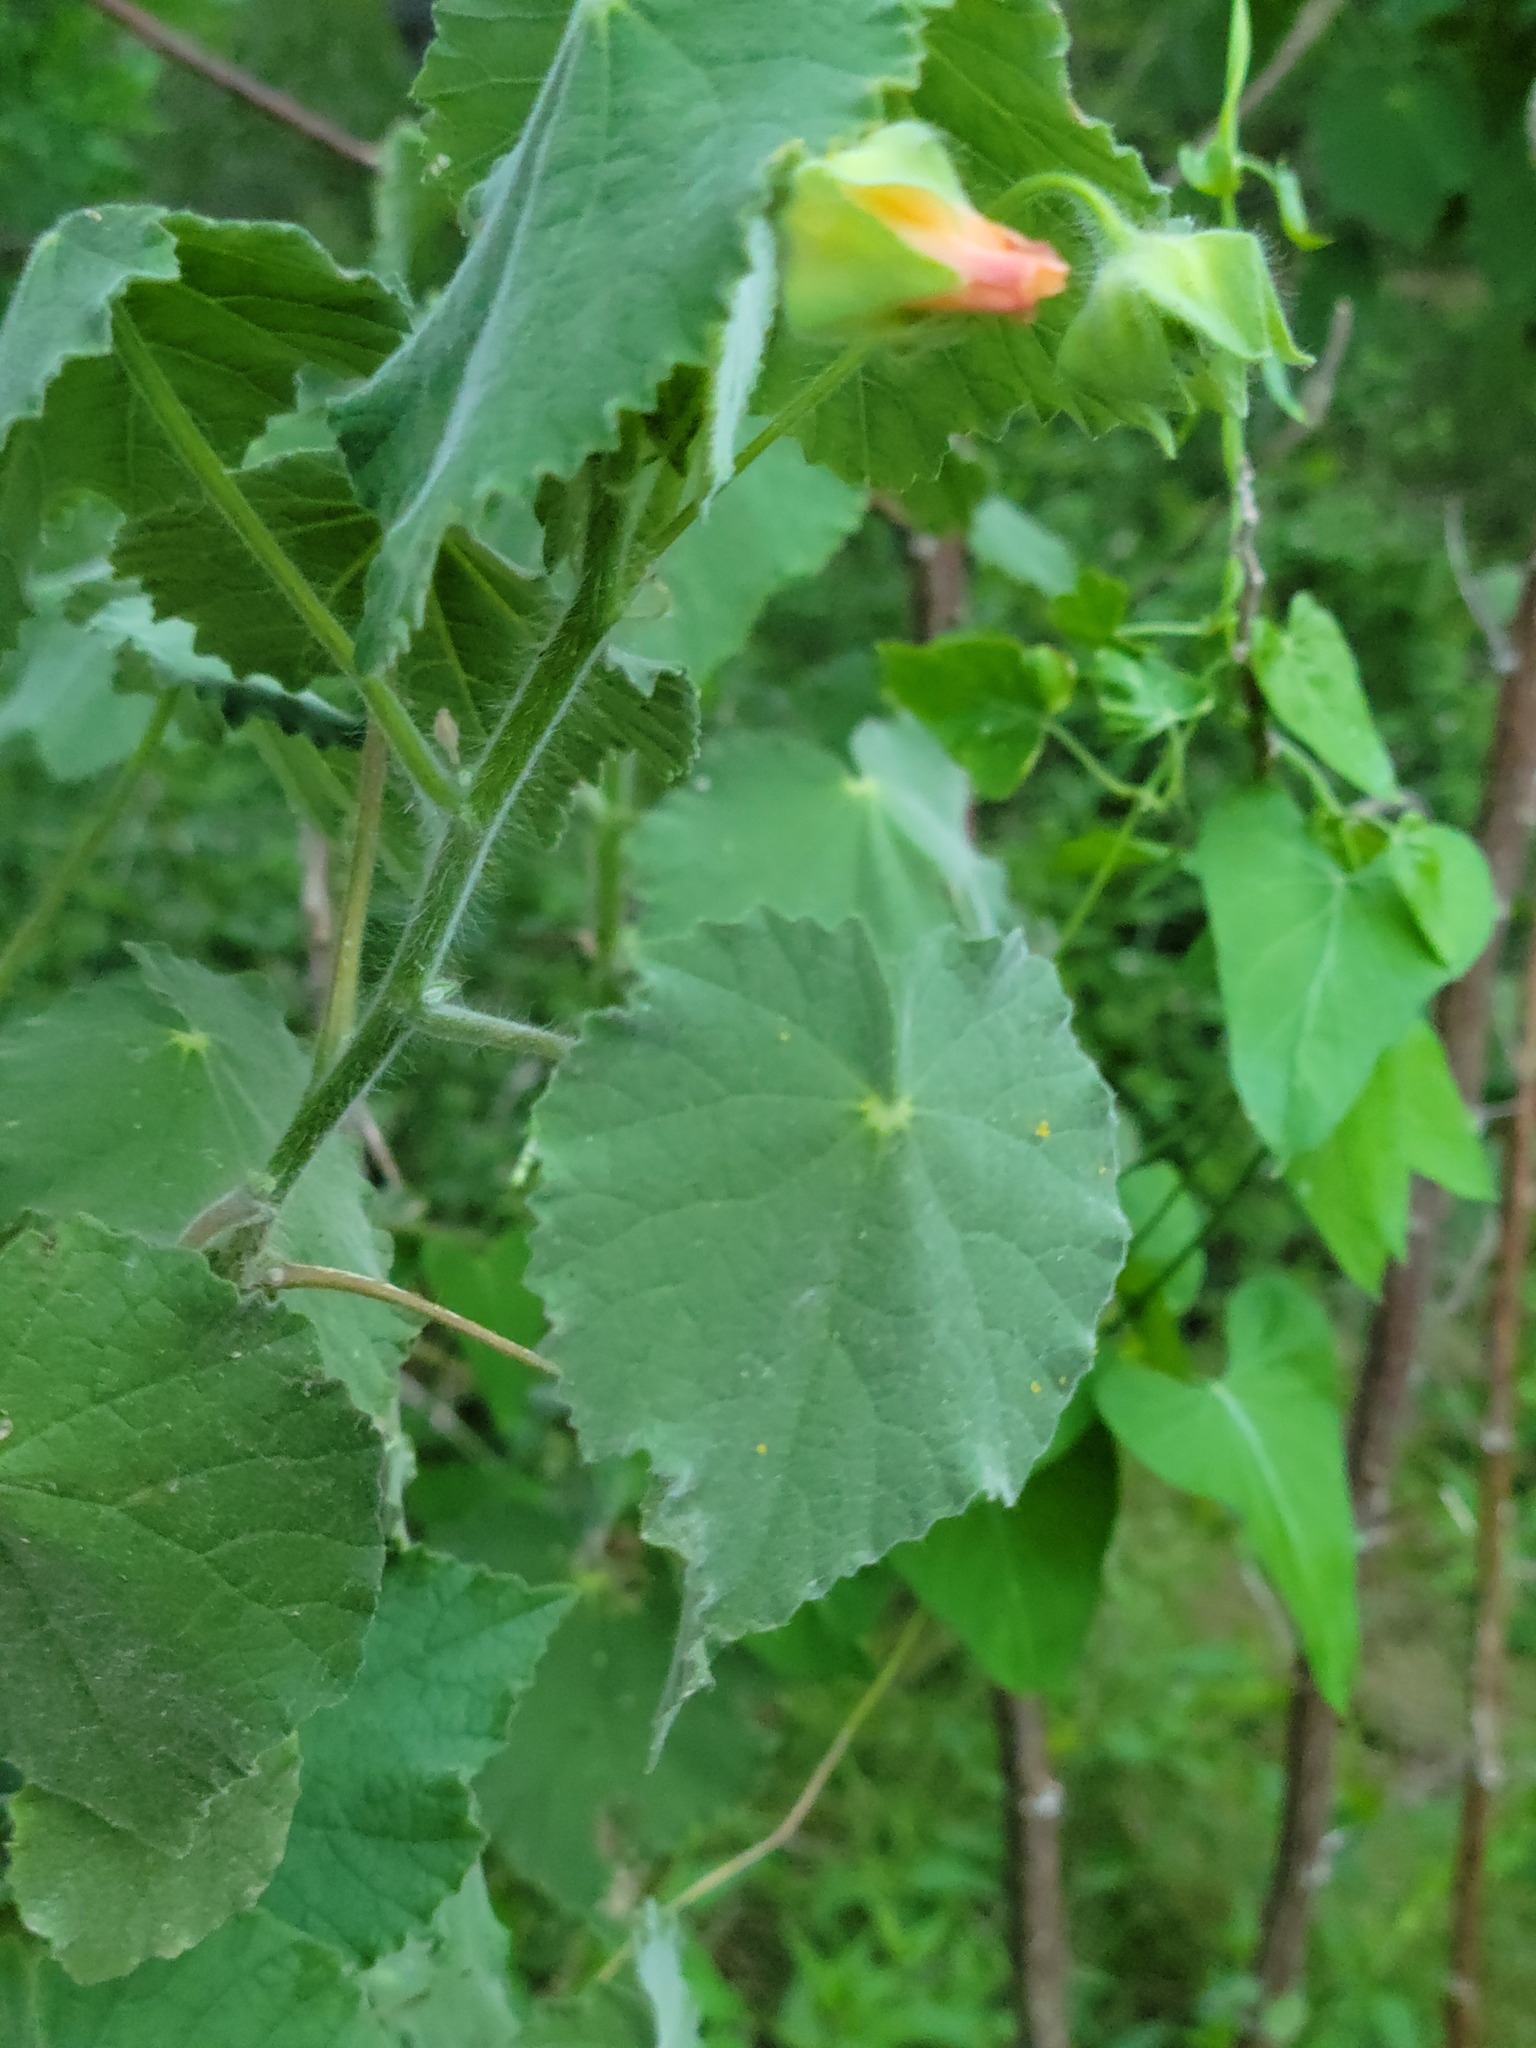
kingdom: Plantae
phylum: Tracheophyta
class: Magnoliopsida
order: Malvales
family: Malvaceae
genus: Abutilon
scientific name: Abutilon hulseanum
